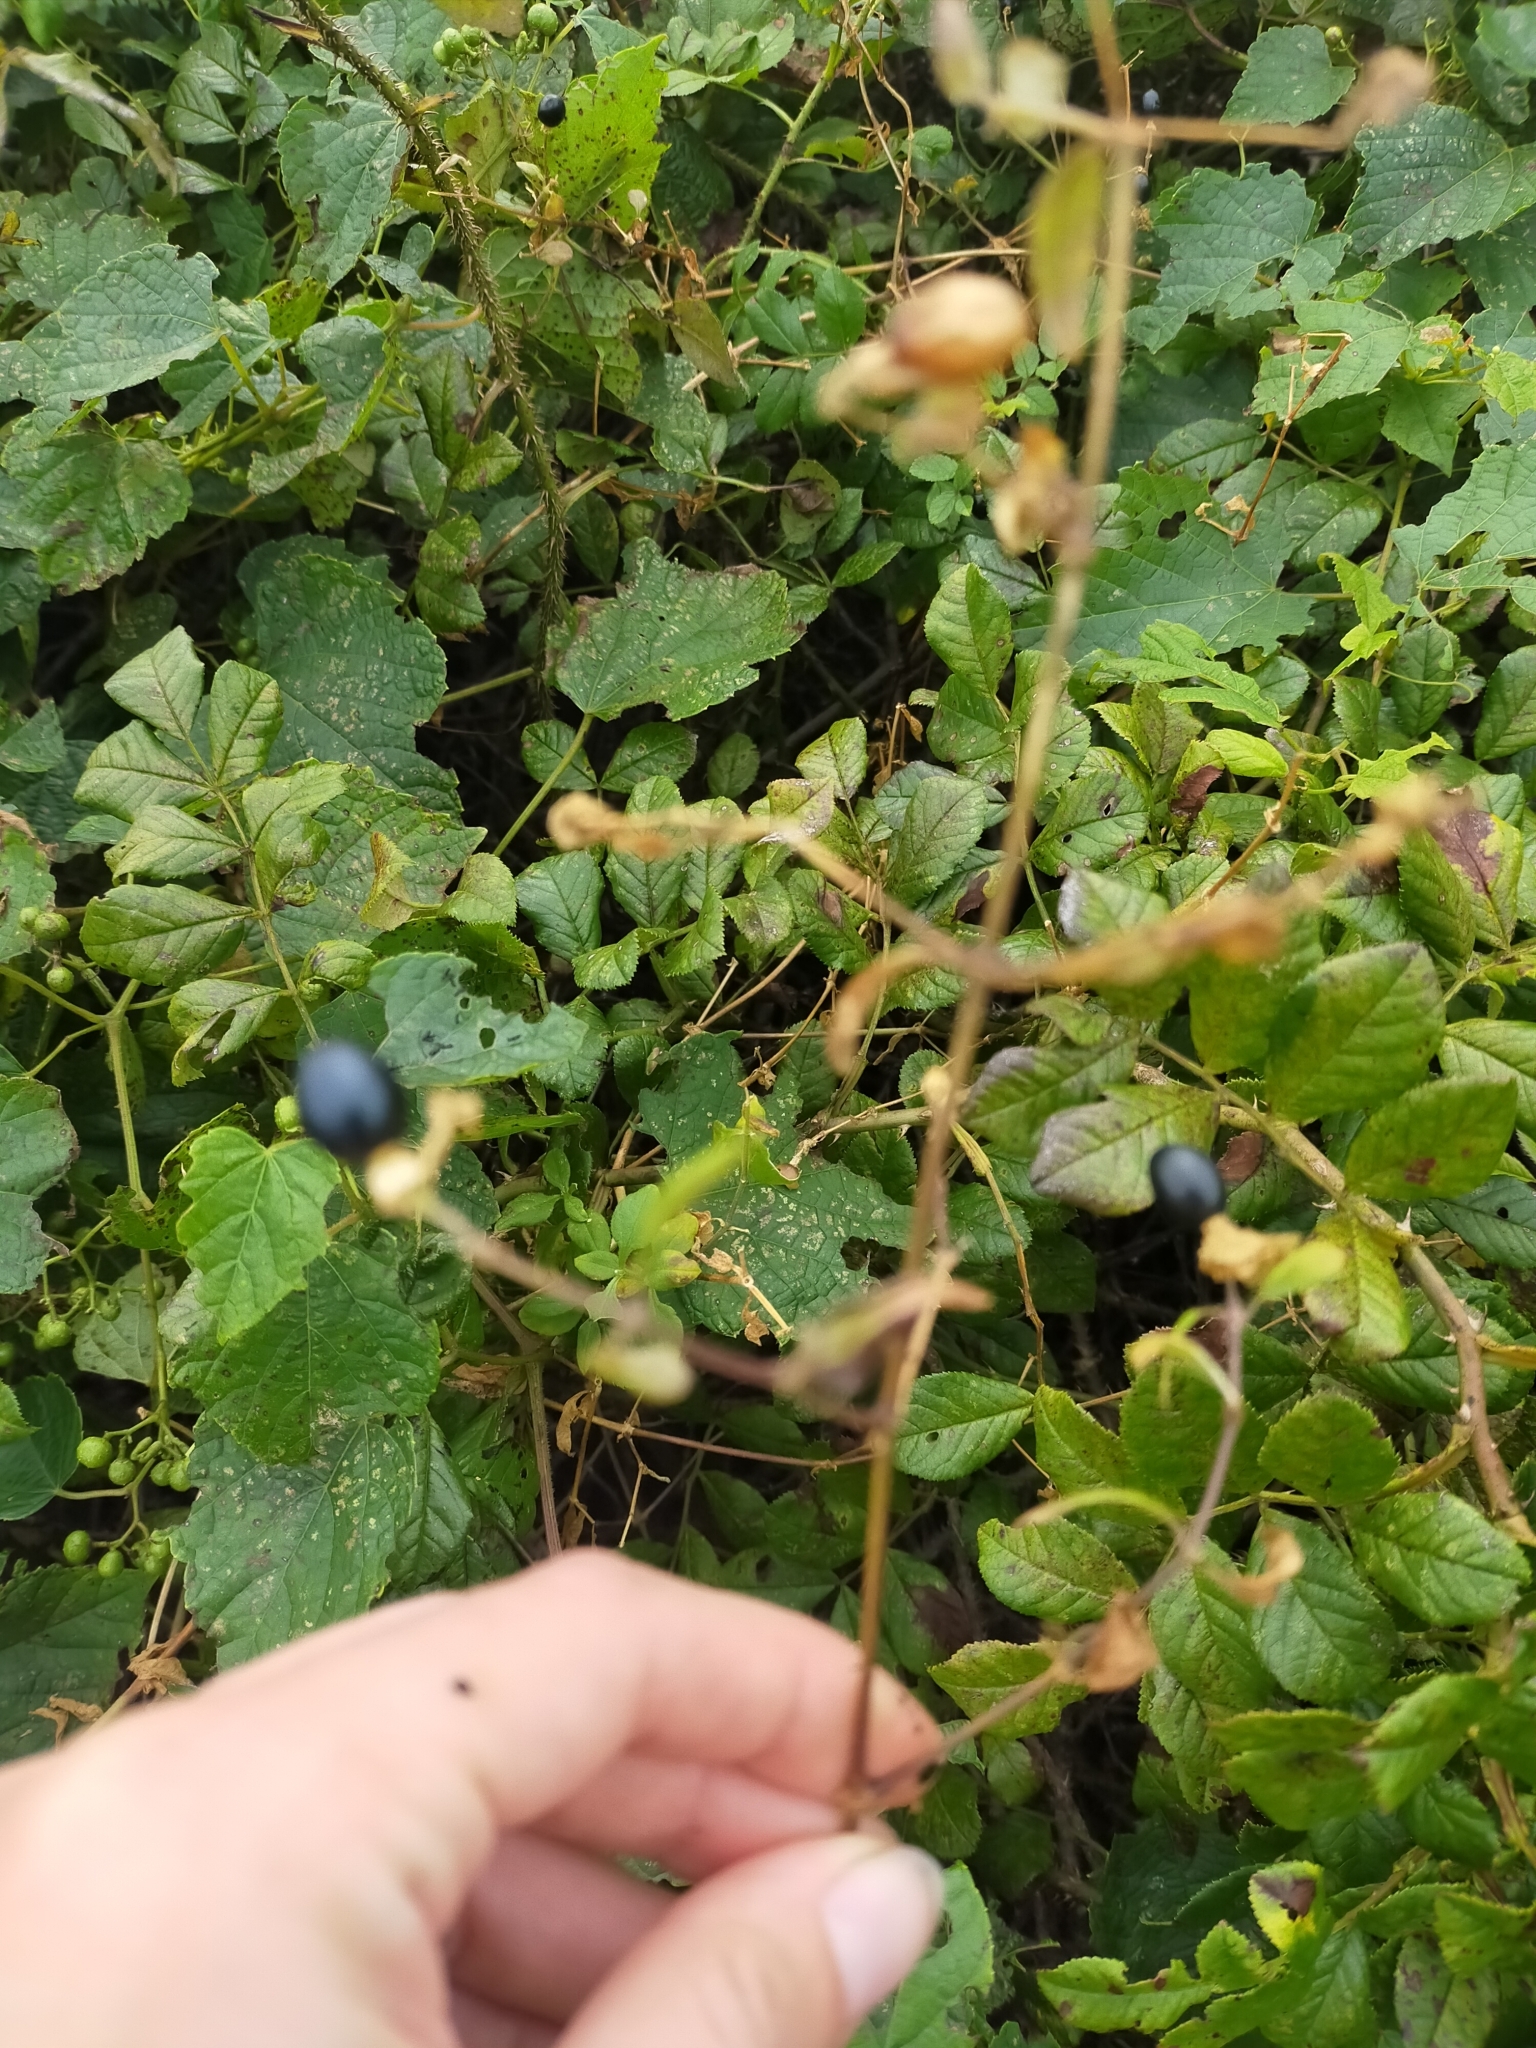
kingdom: Plantae
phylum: Tracheophyta
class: Magnoliopsida
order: Caryophyllales
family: Caryophyllaceae
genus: Silene
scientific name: Silene baccifera
